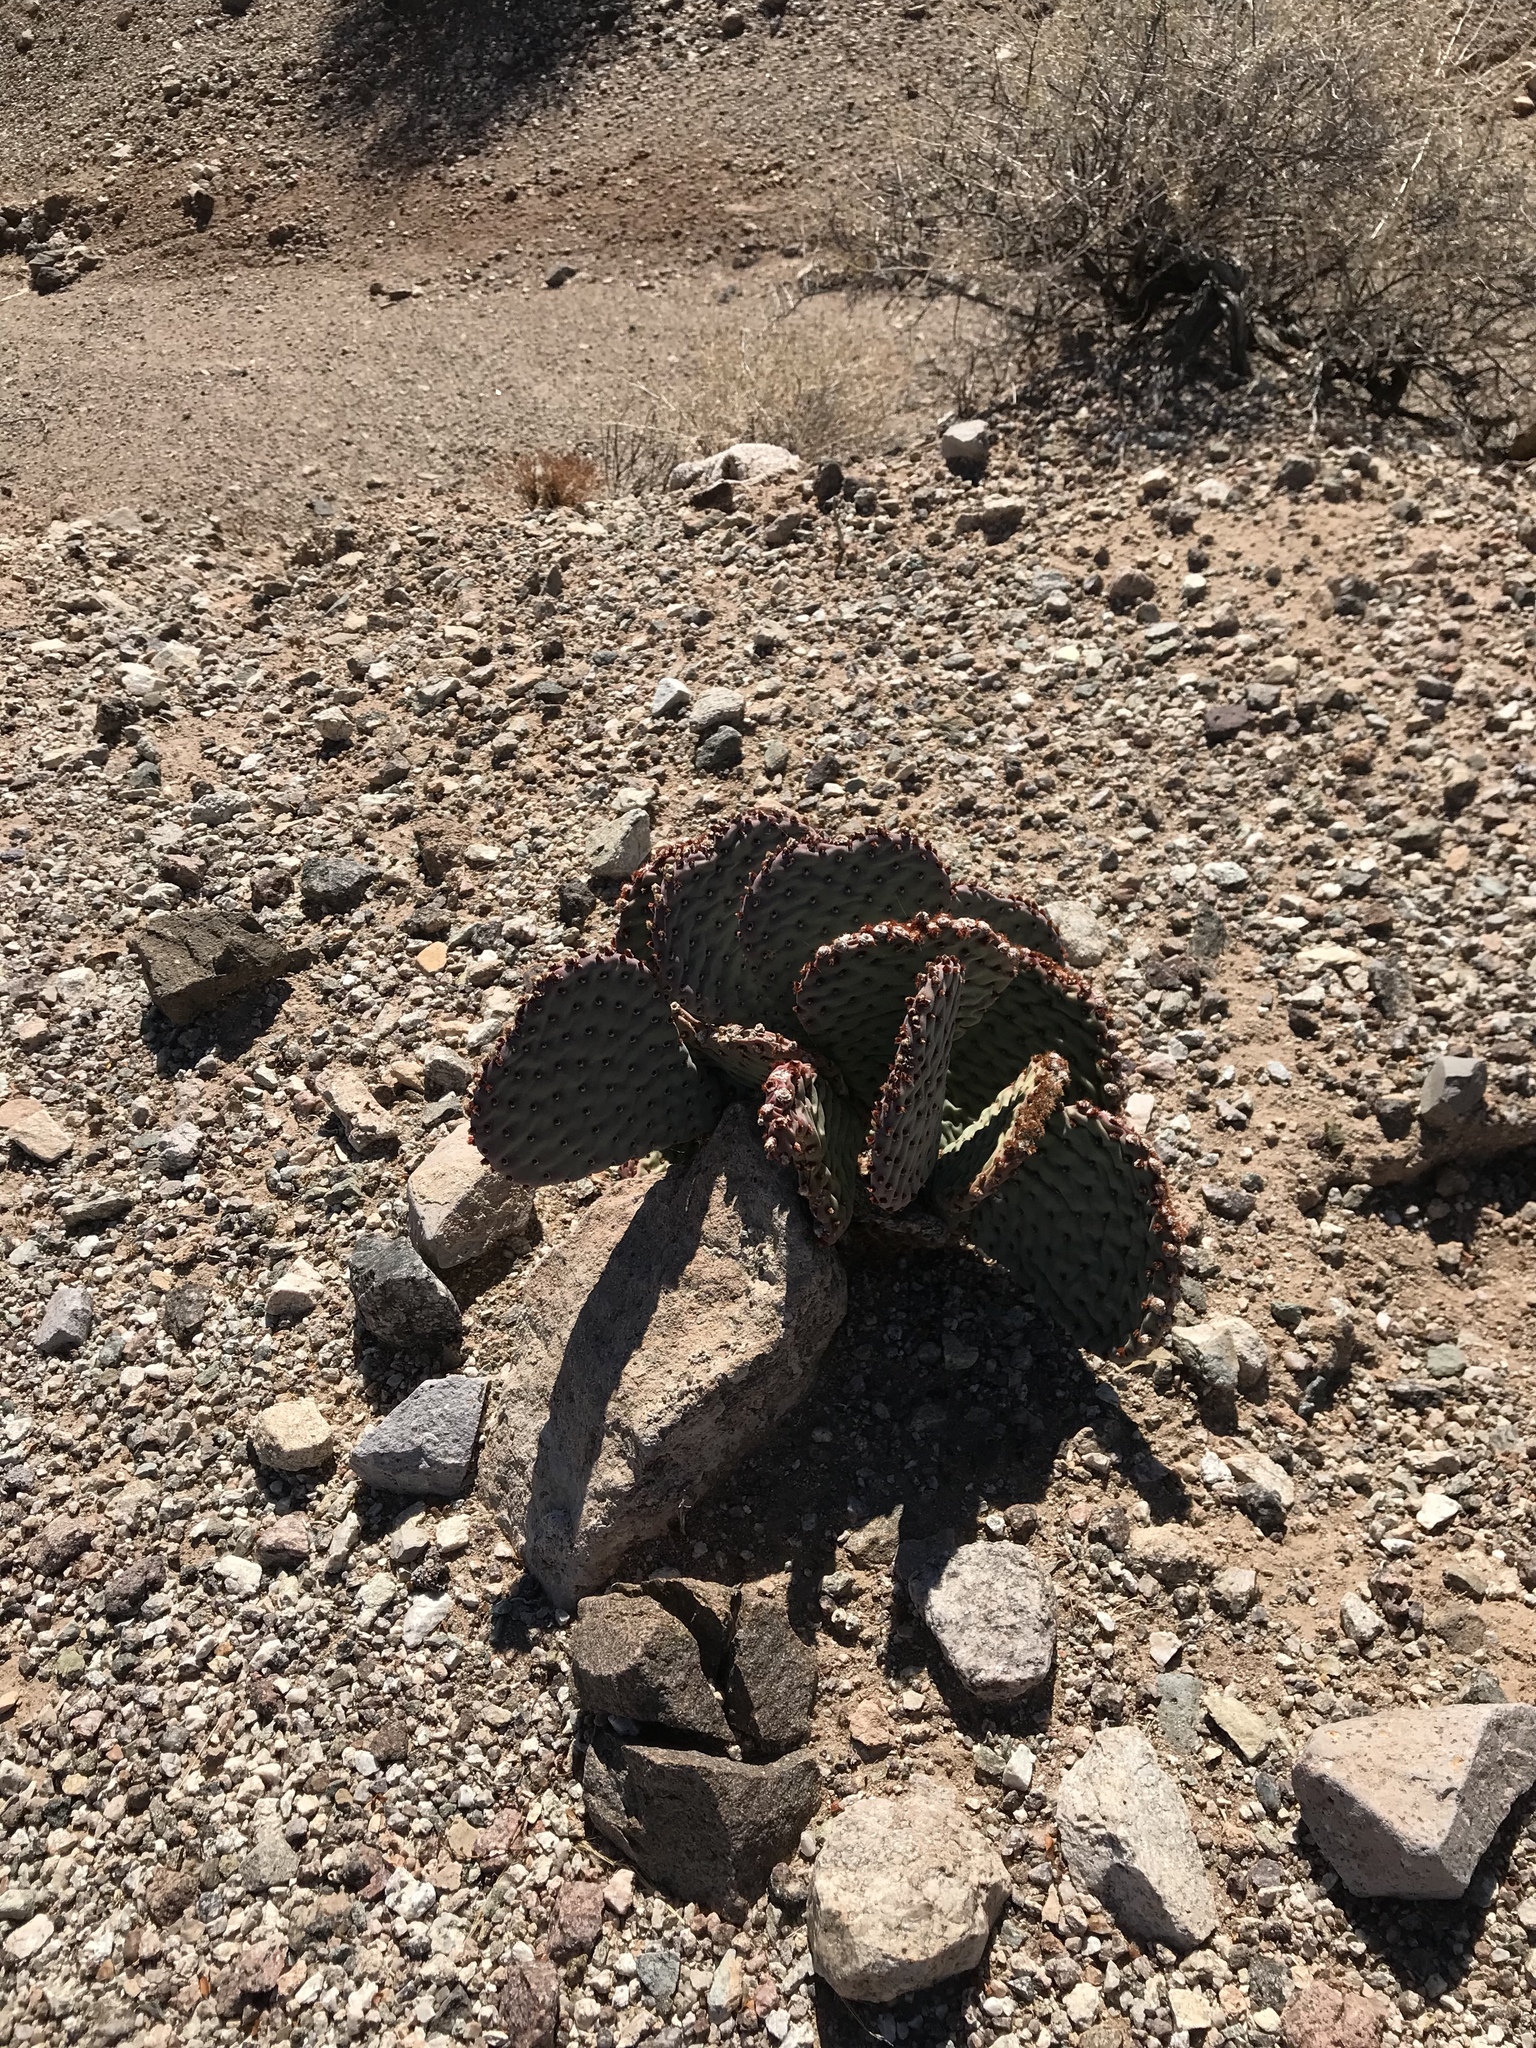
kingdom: Plantae
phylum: Tracheophyta
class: Magnoliopsida
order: Caryophyllales
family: Cactaceae
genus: Opuntia
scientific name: Opuntia basilaris
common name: Beavertail prickly-pear
